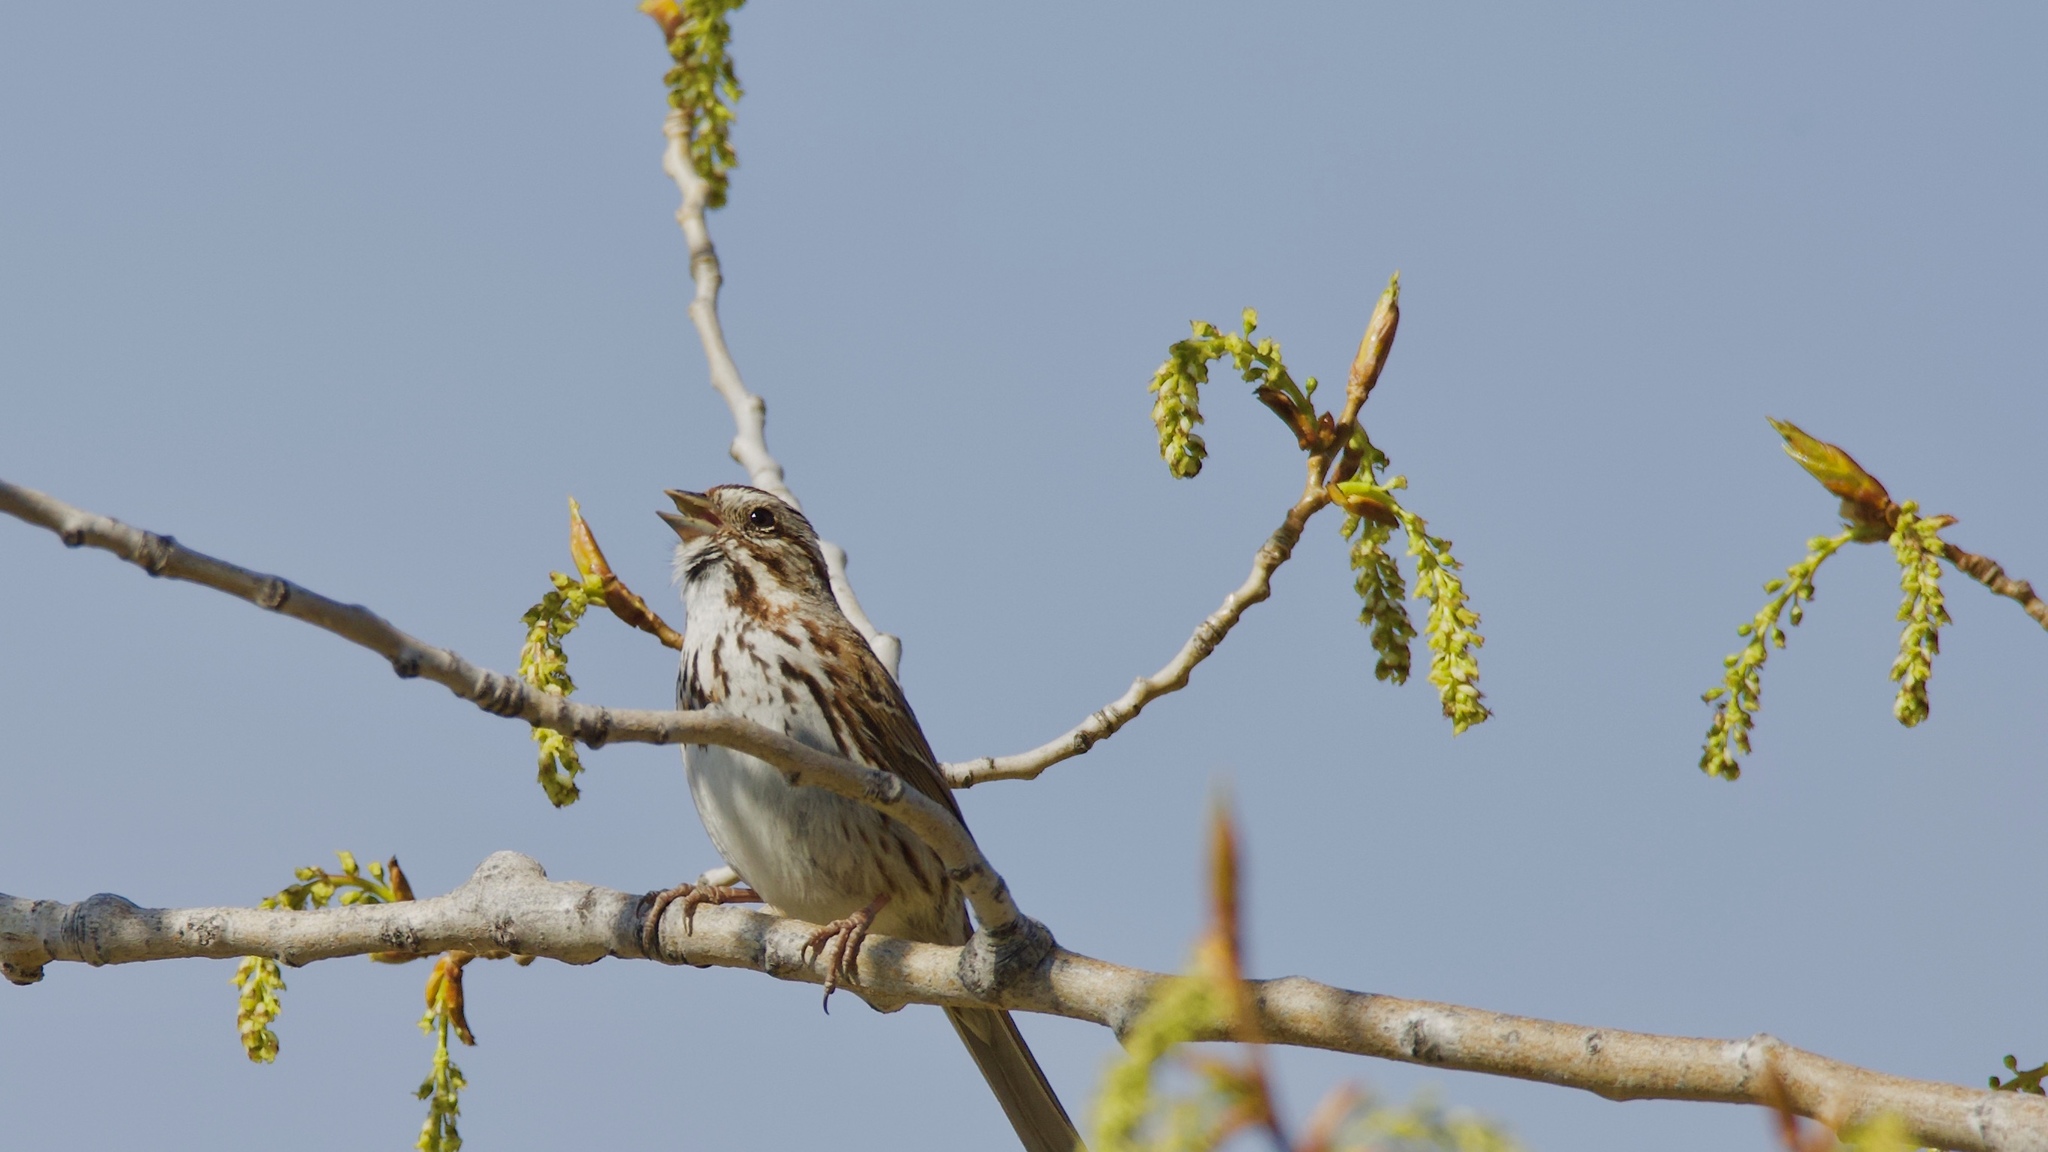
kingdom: Animalia
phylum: Chordata
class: Aves
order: Passeriformes
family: Passerellidae
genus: Melospiza
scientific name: Melospiza melodia
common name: Song sparrow
